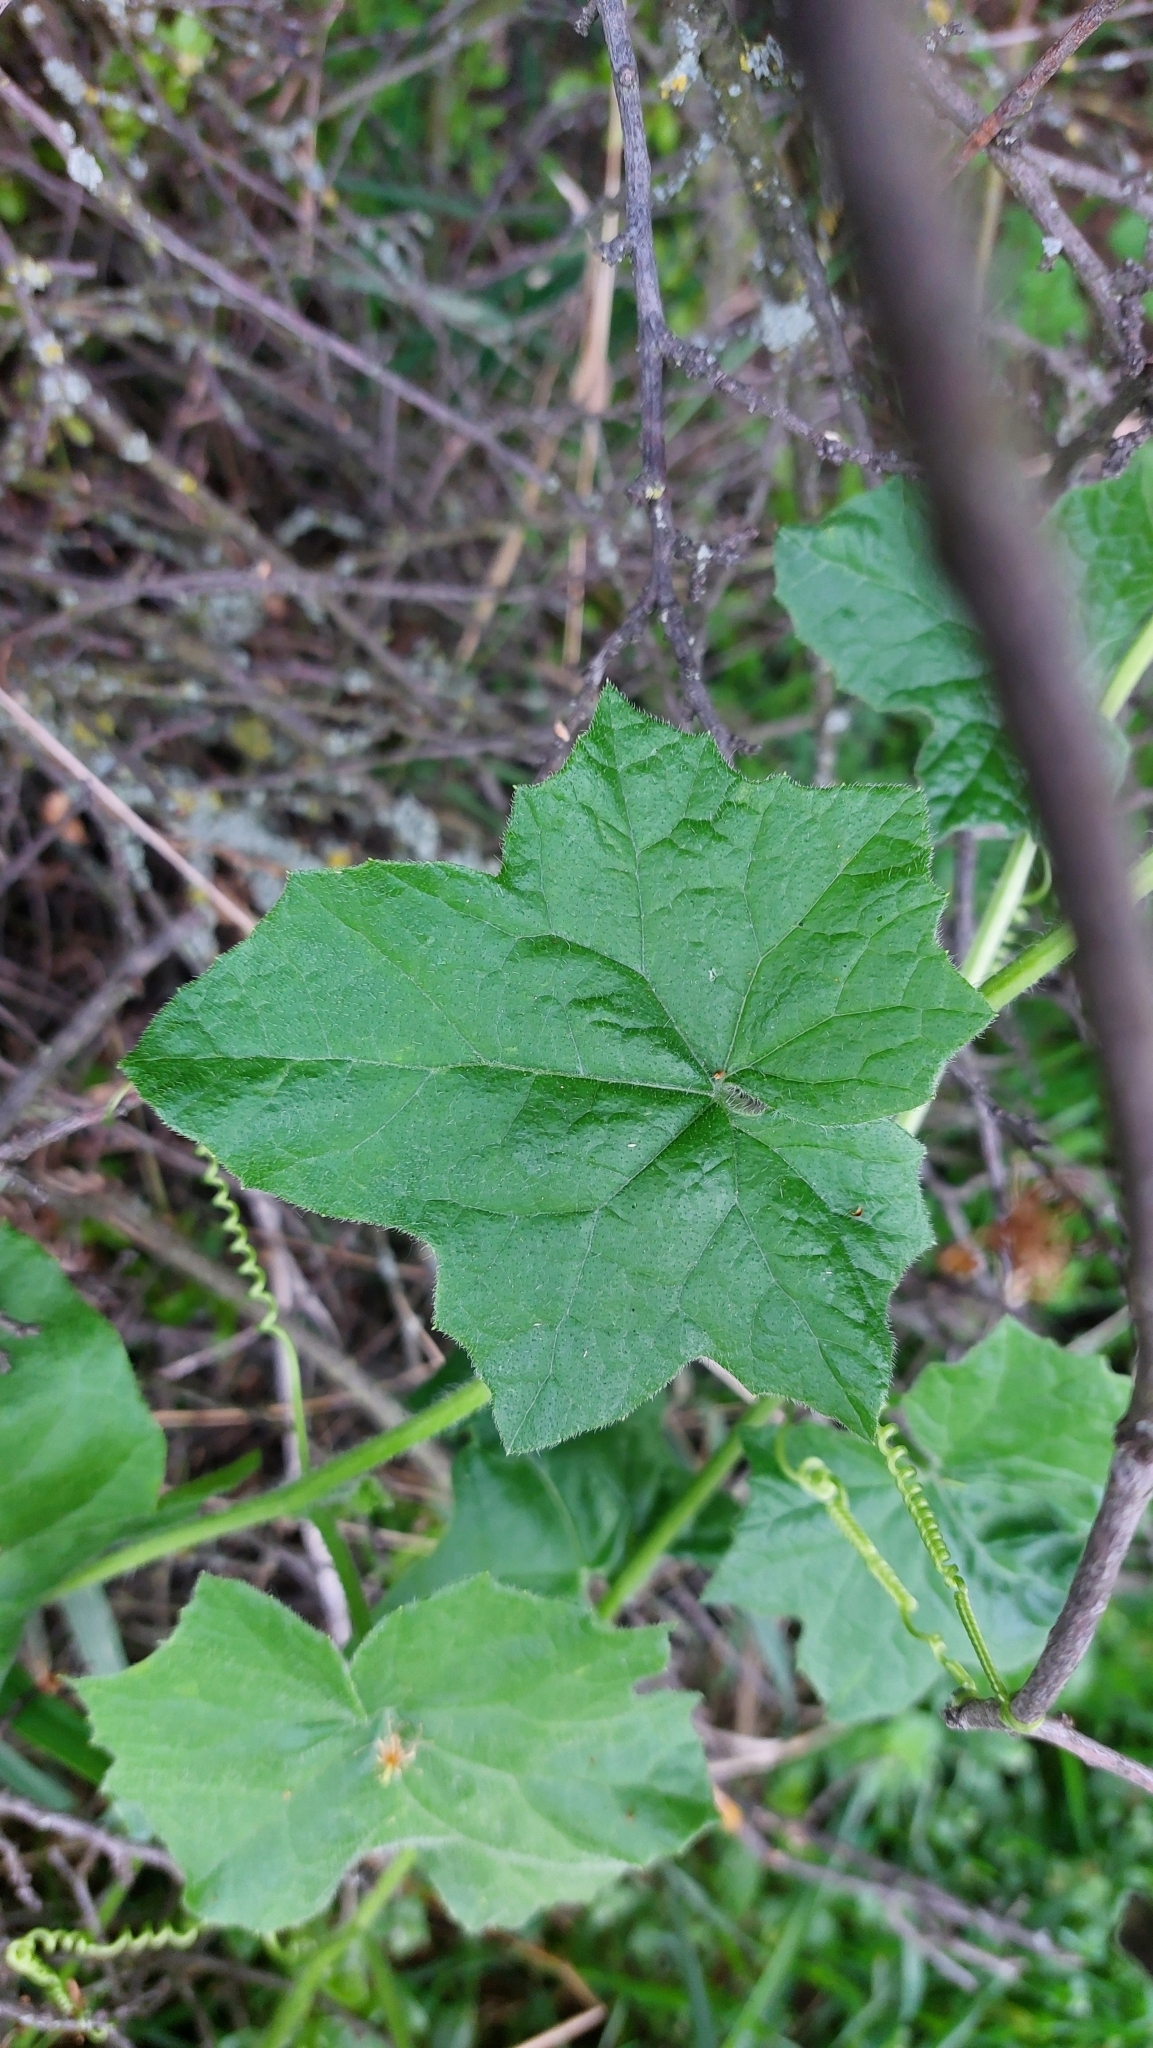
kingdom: Plantae
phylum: Tracheophyta
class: Magnoliopsida
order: Cucurbitales
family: Cucurbitaceae
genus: Bryonia
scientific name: Bryonia dioica
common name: White bryony
